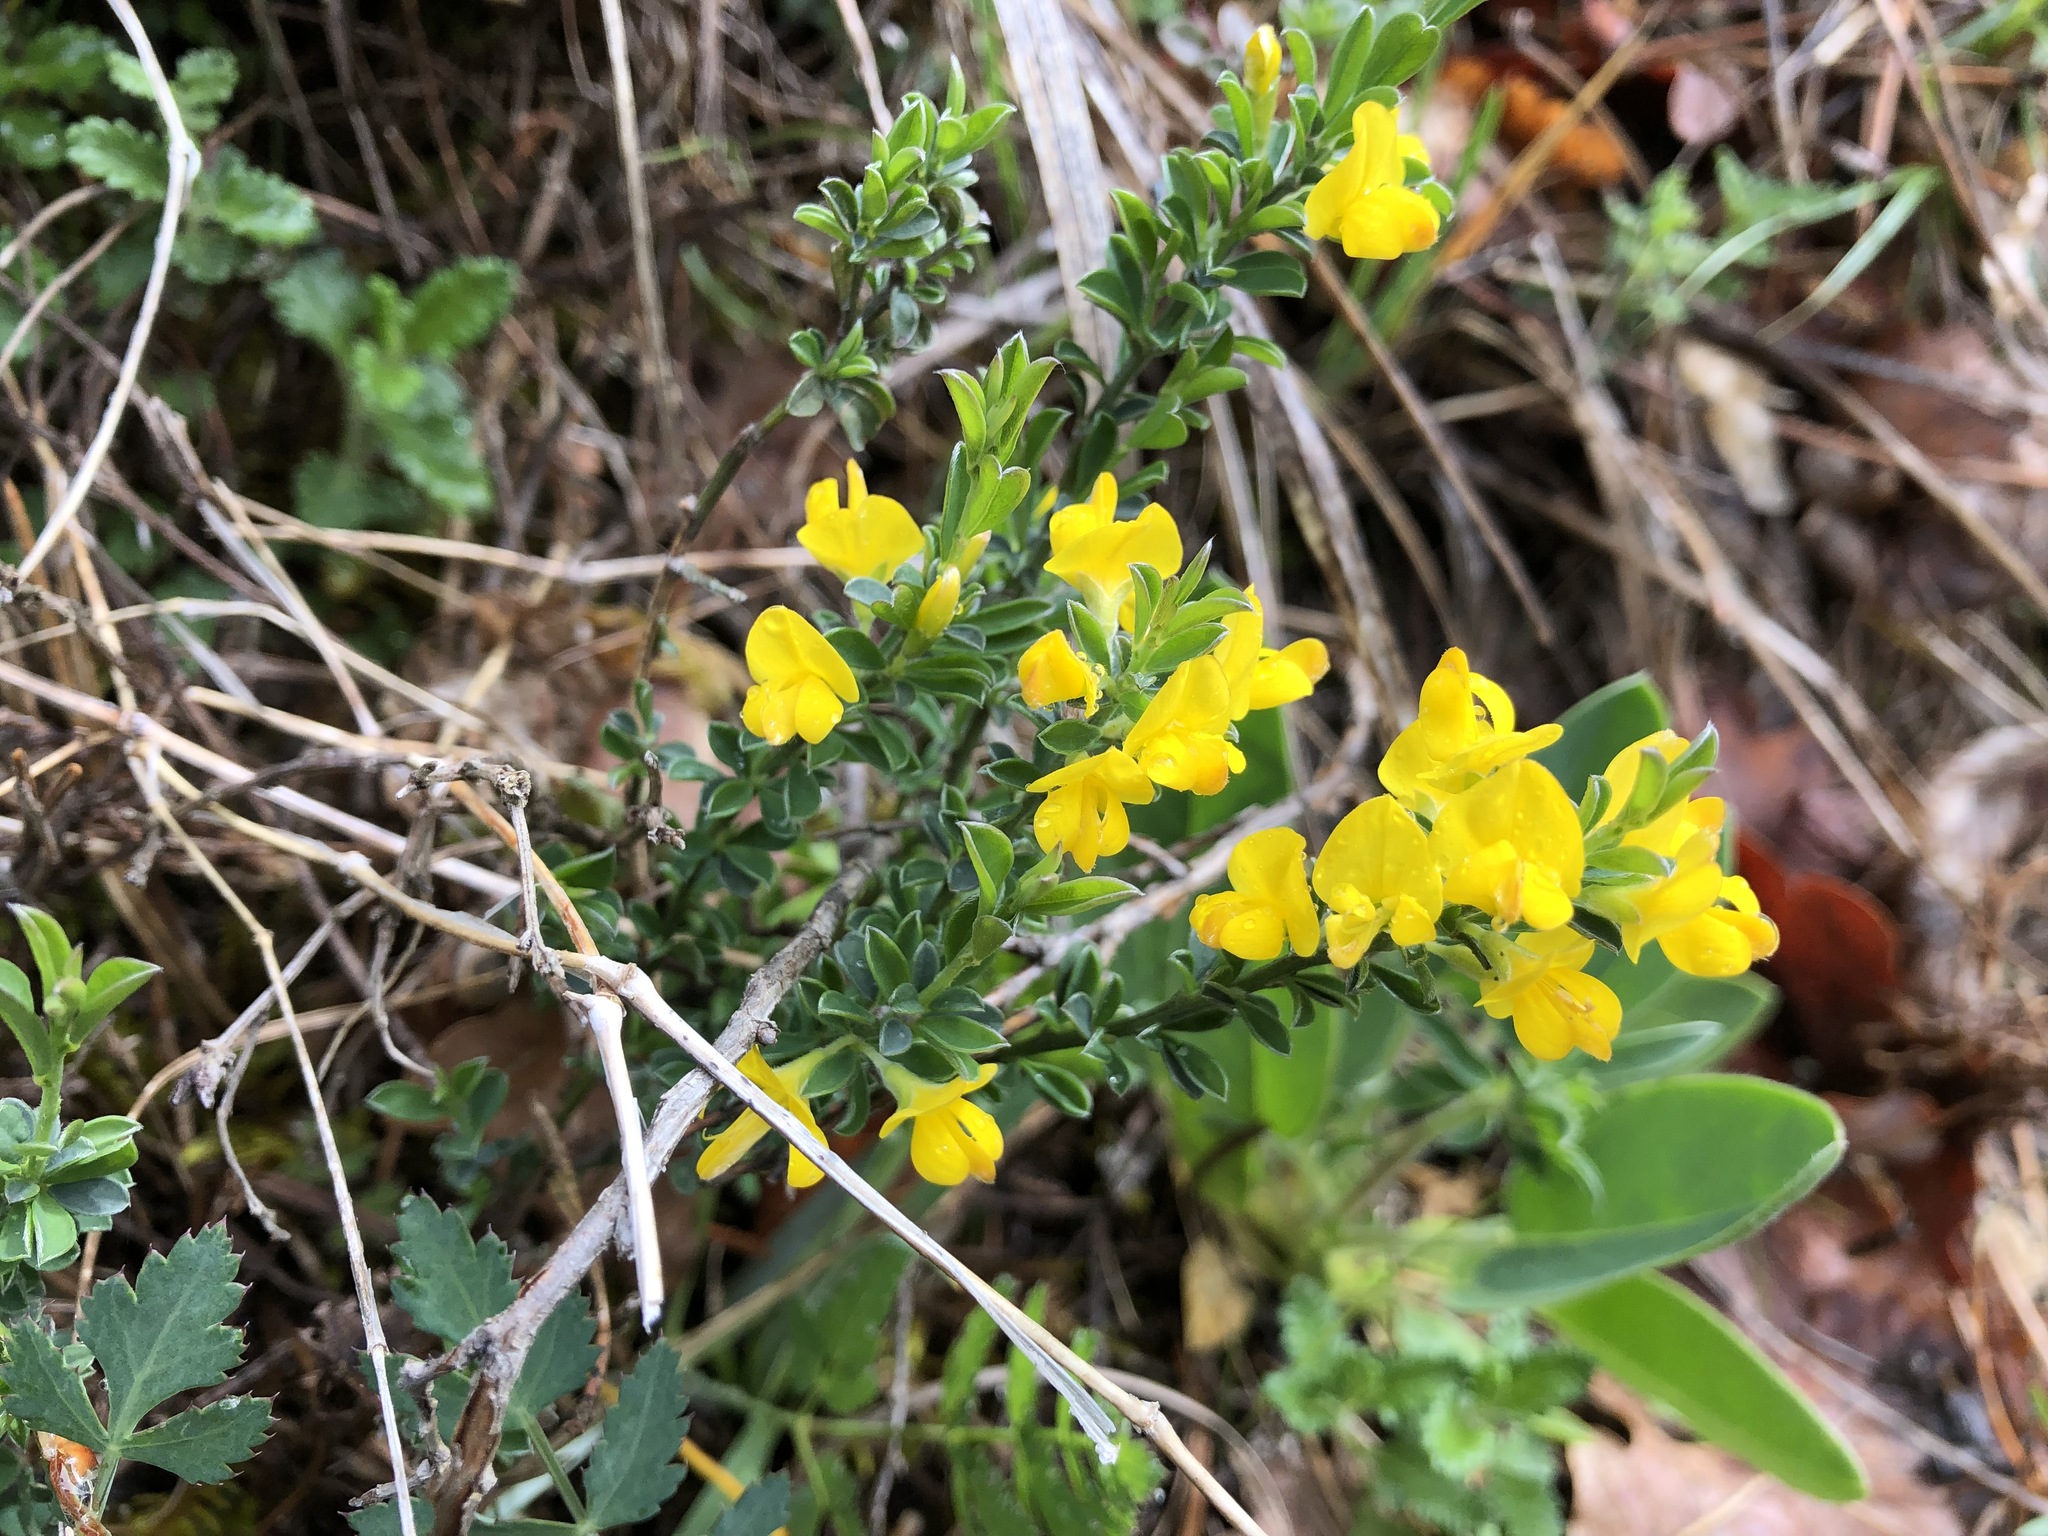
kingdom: Plantae
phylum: Tracheophyta
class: Magnoliopsida
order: Fabales
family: Fabaceae
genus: Genista
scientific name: Genista pilosa
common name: Hairy greenweed
